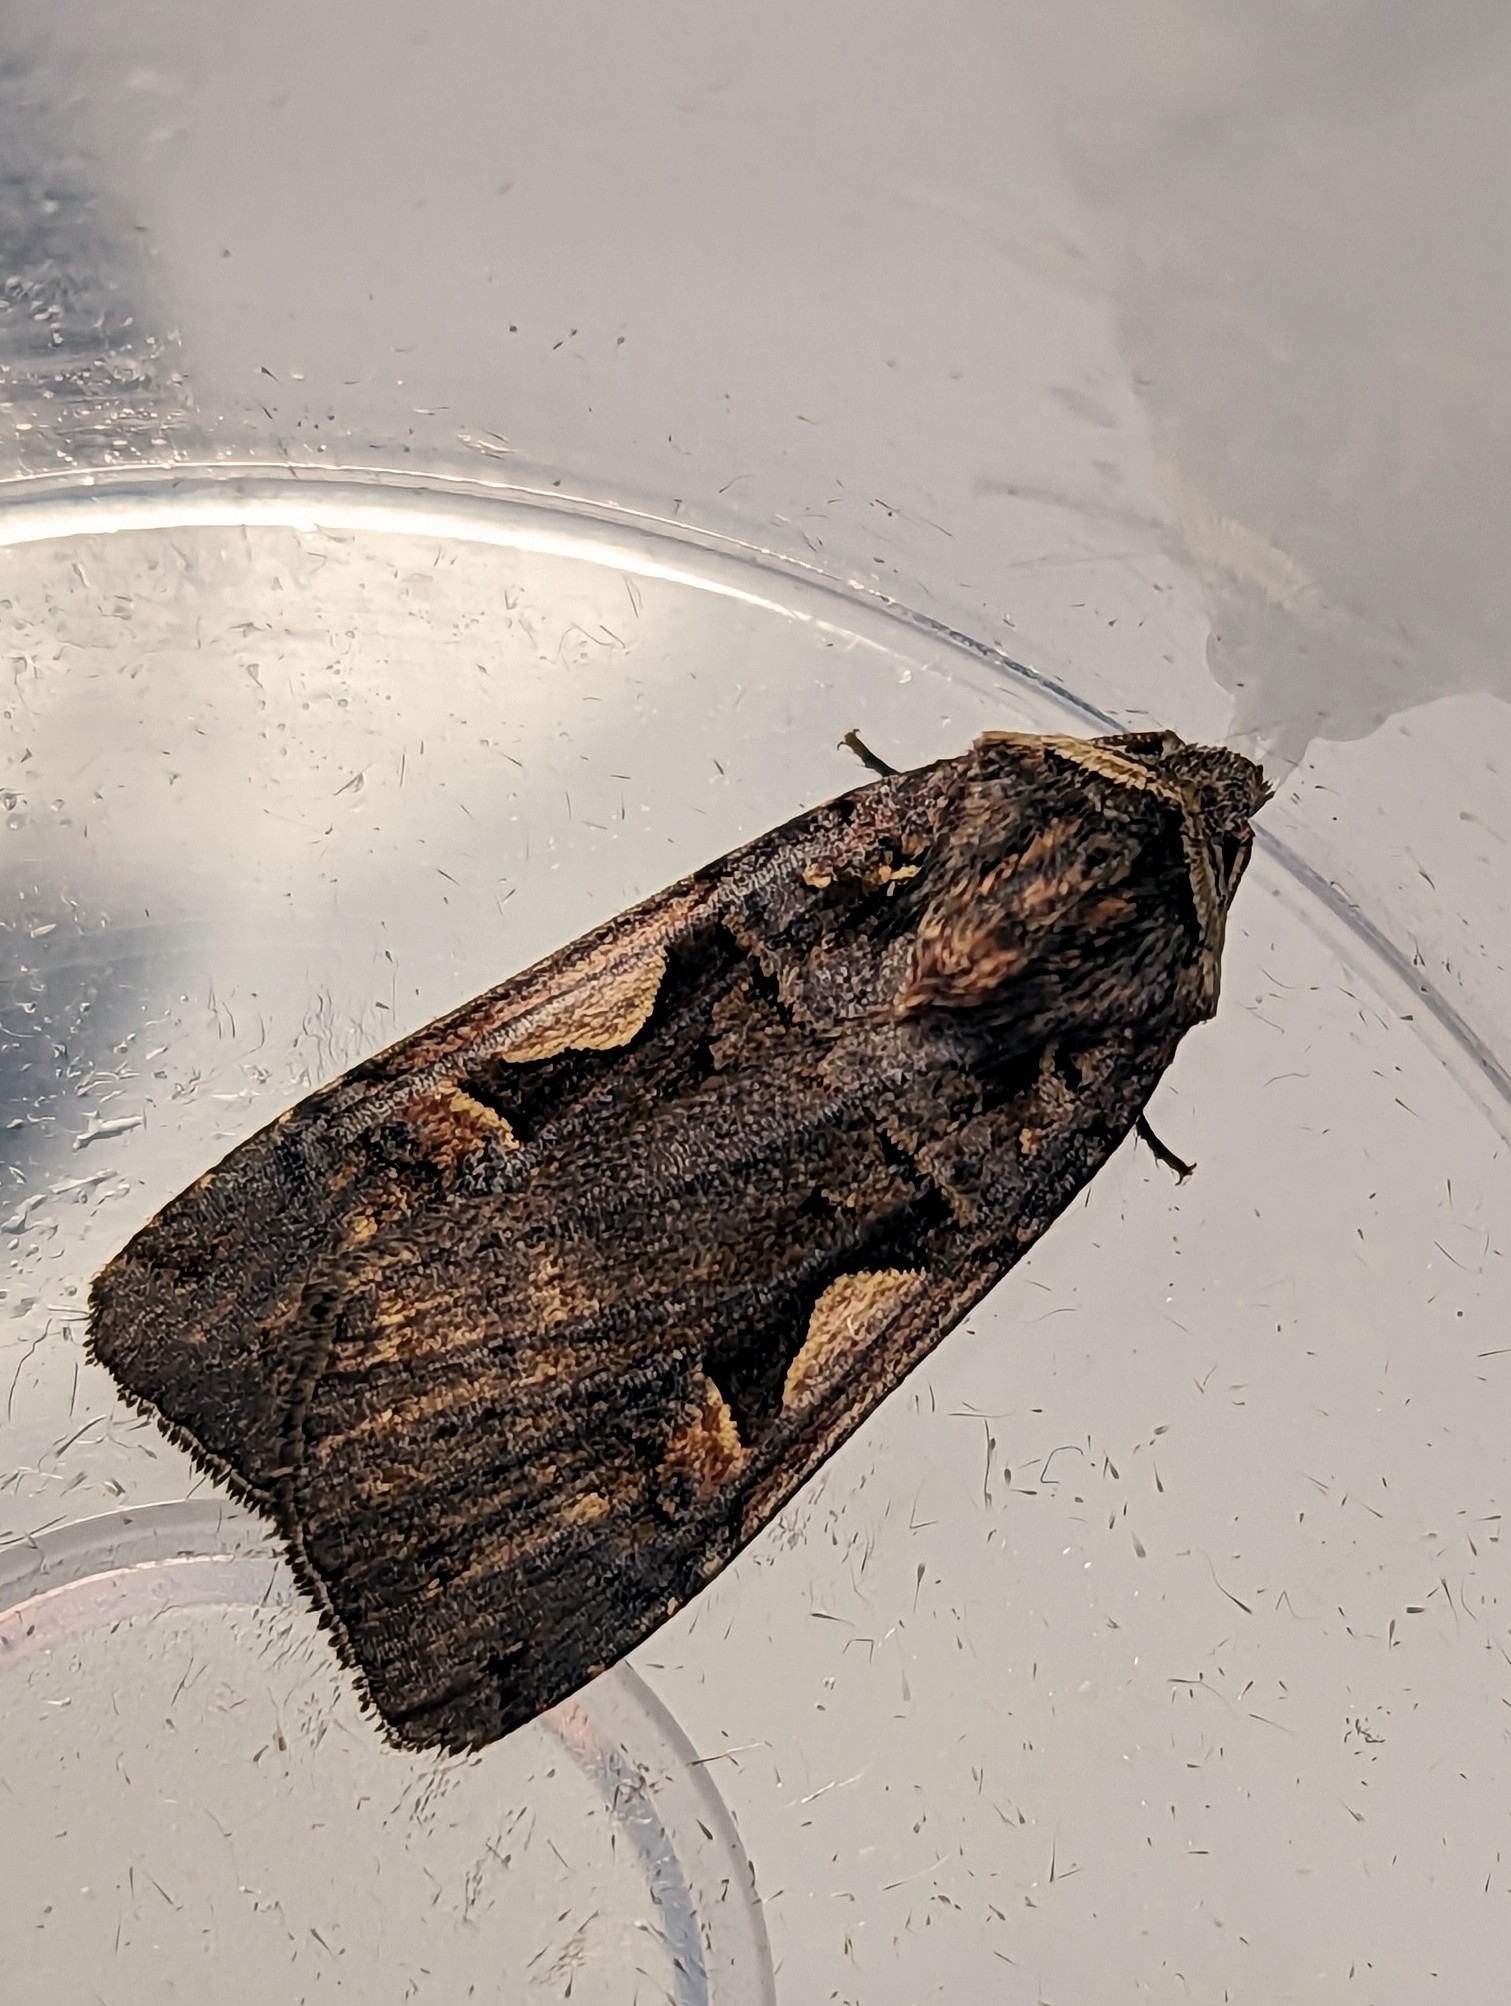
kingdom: Animalia
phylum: Arthropoda
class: Insecta
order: Lepidoptera
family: Noctuidae
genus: Xestia
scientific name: Xestia c-nigrum
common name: Setaceous hebrew character
